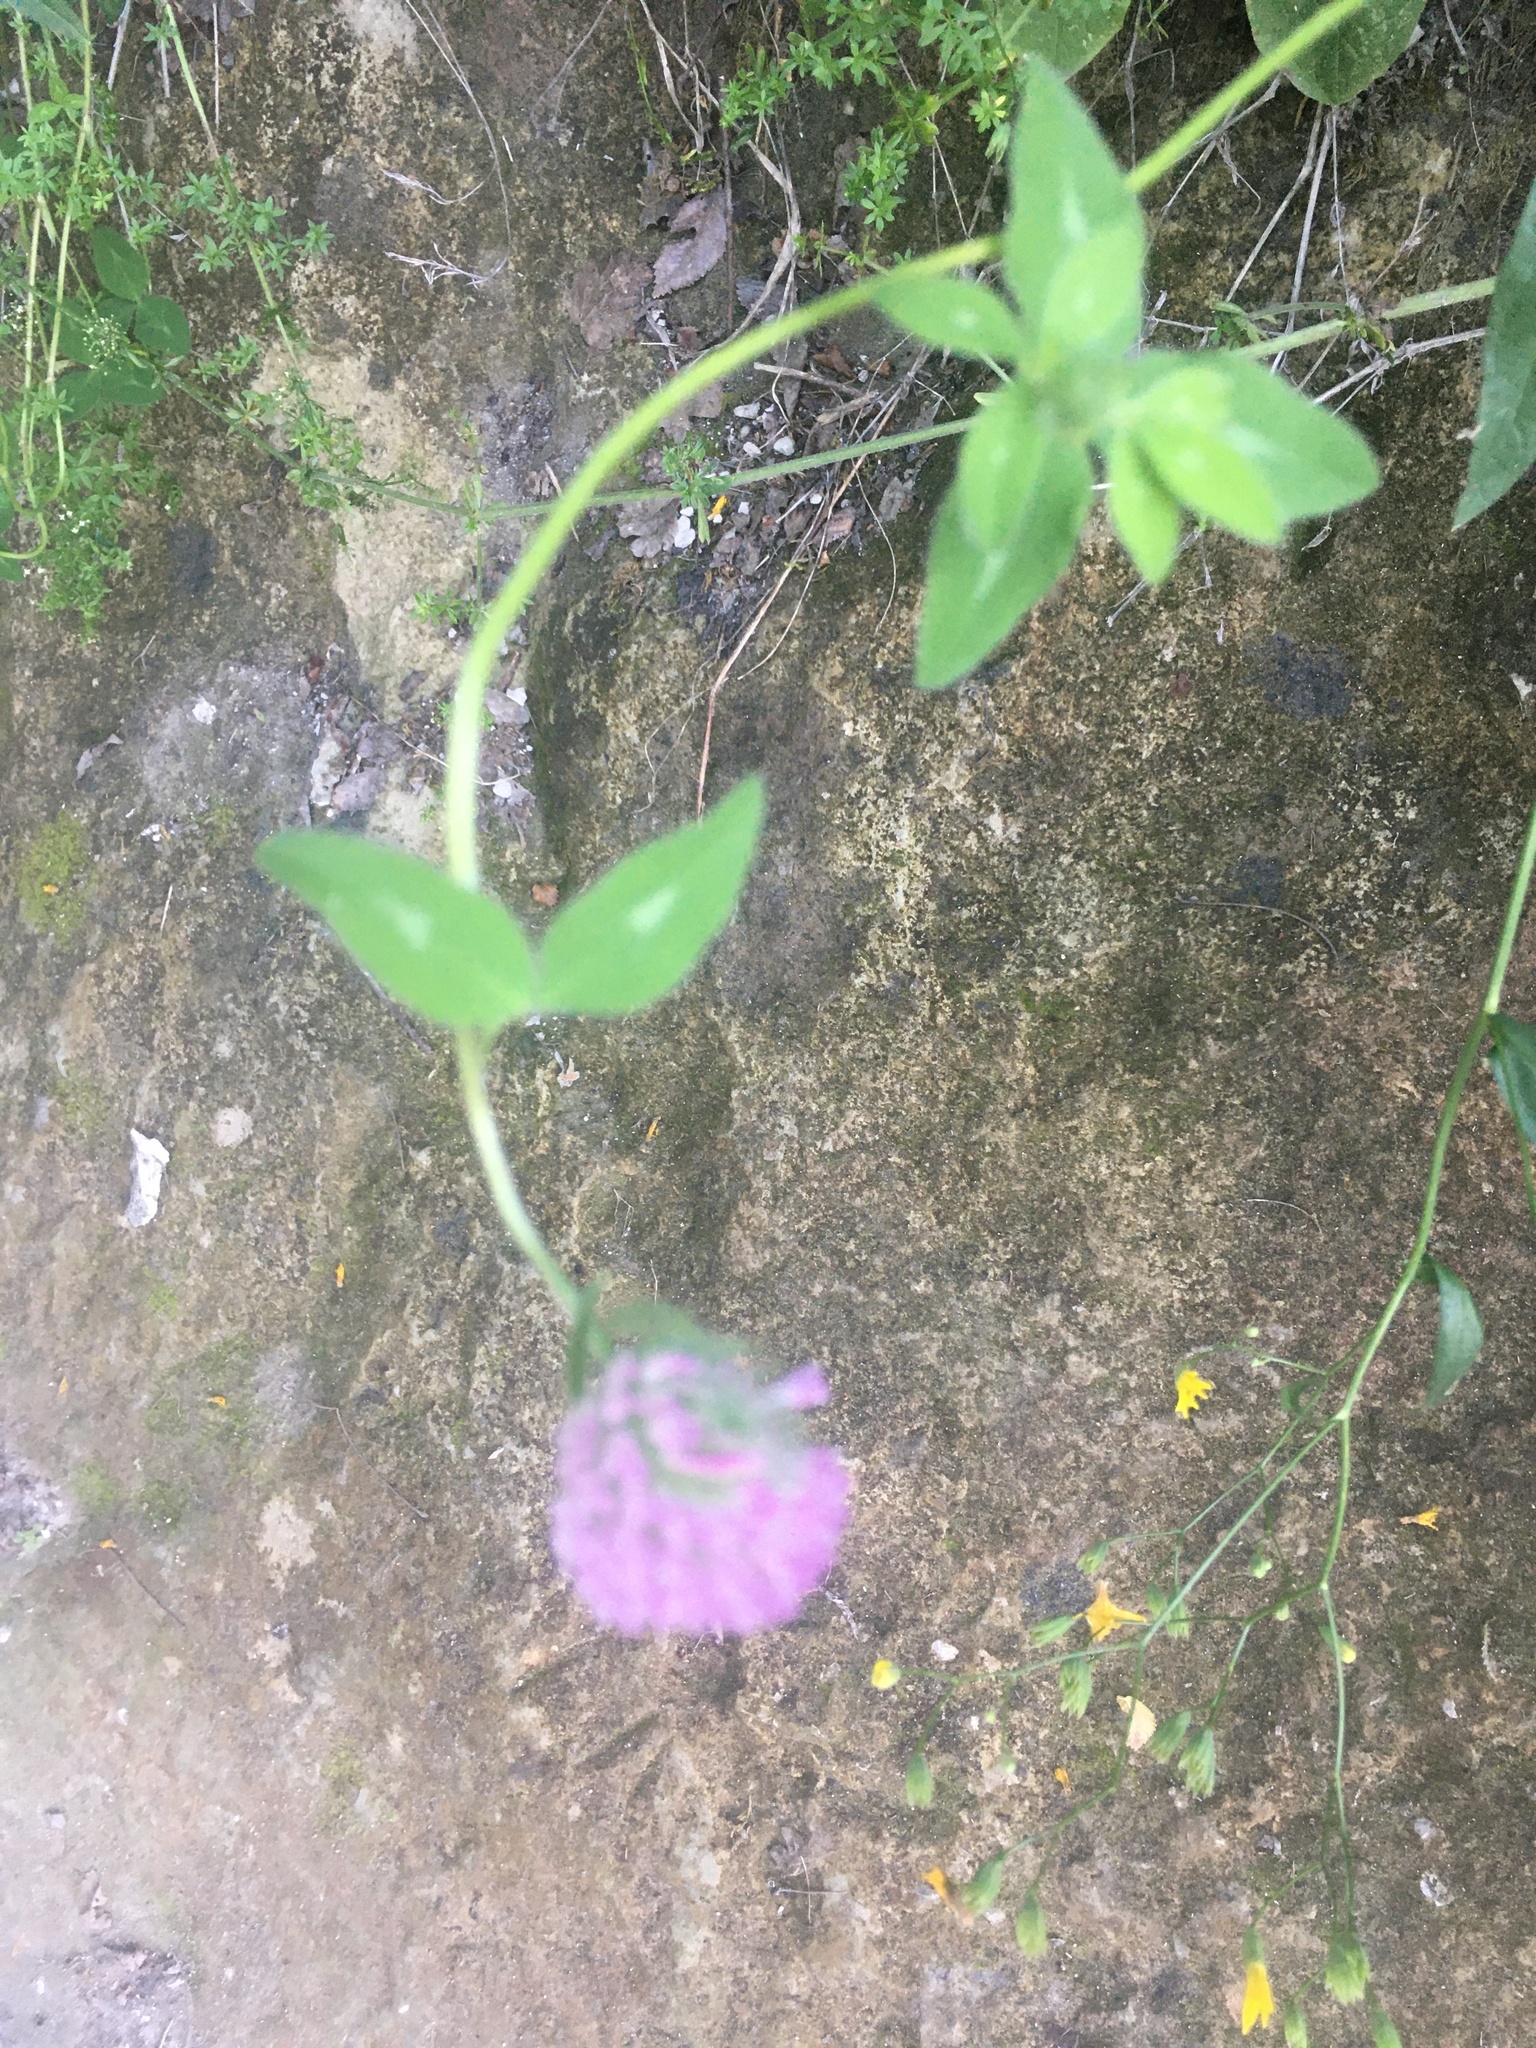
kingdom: Plantae
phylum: Tracheophyta
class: Magnoliopsida
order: Fabales
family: Fabaceae
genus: Trifolium
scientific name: Trifolium pratense
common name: Red clover
